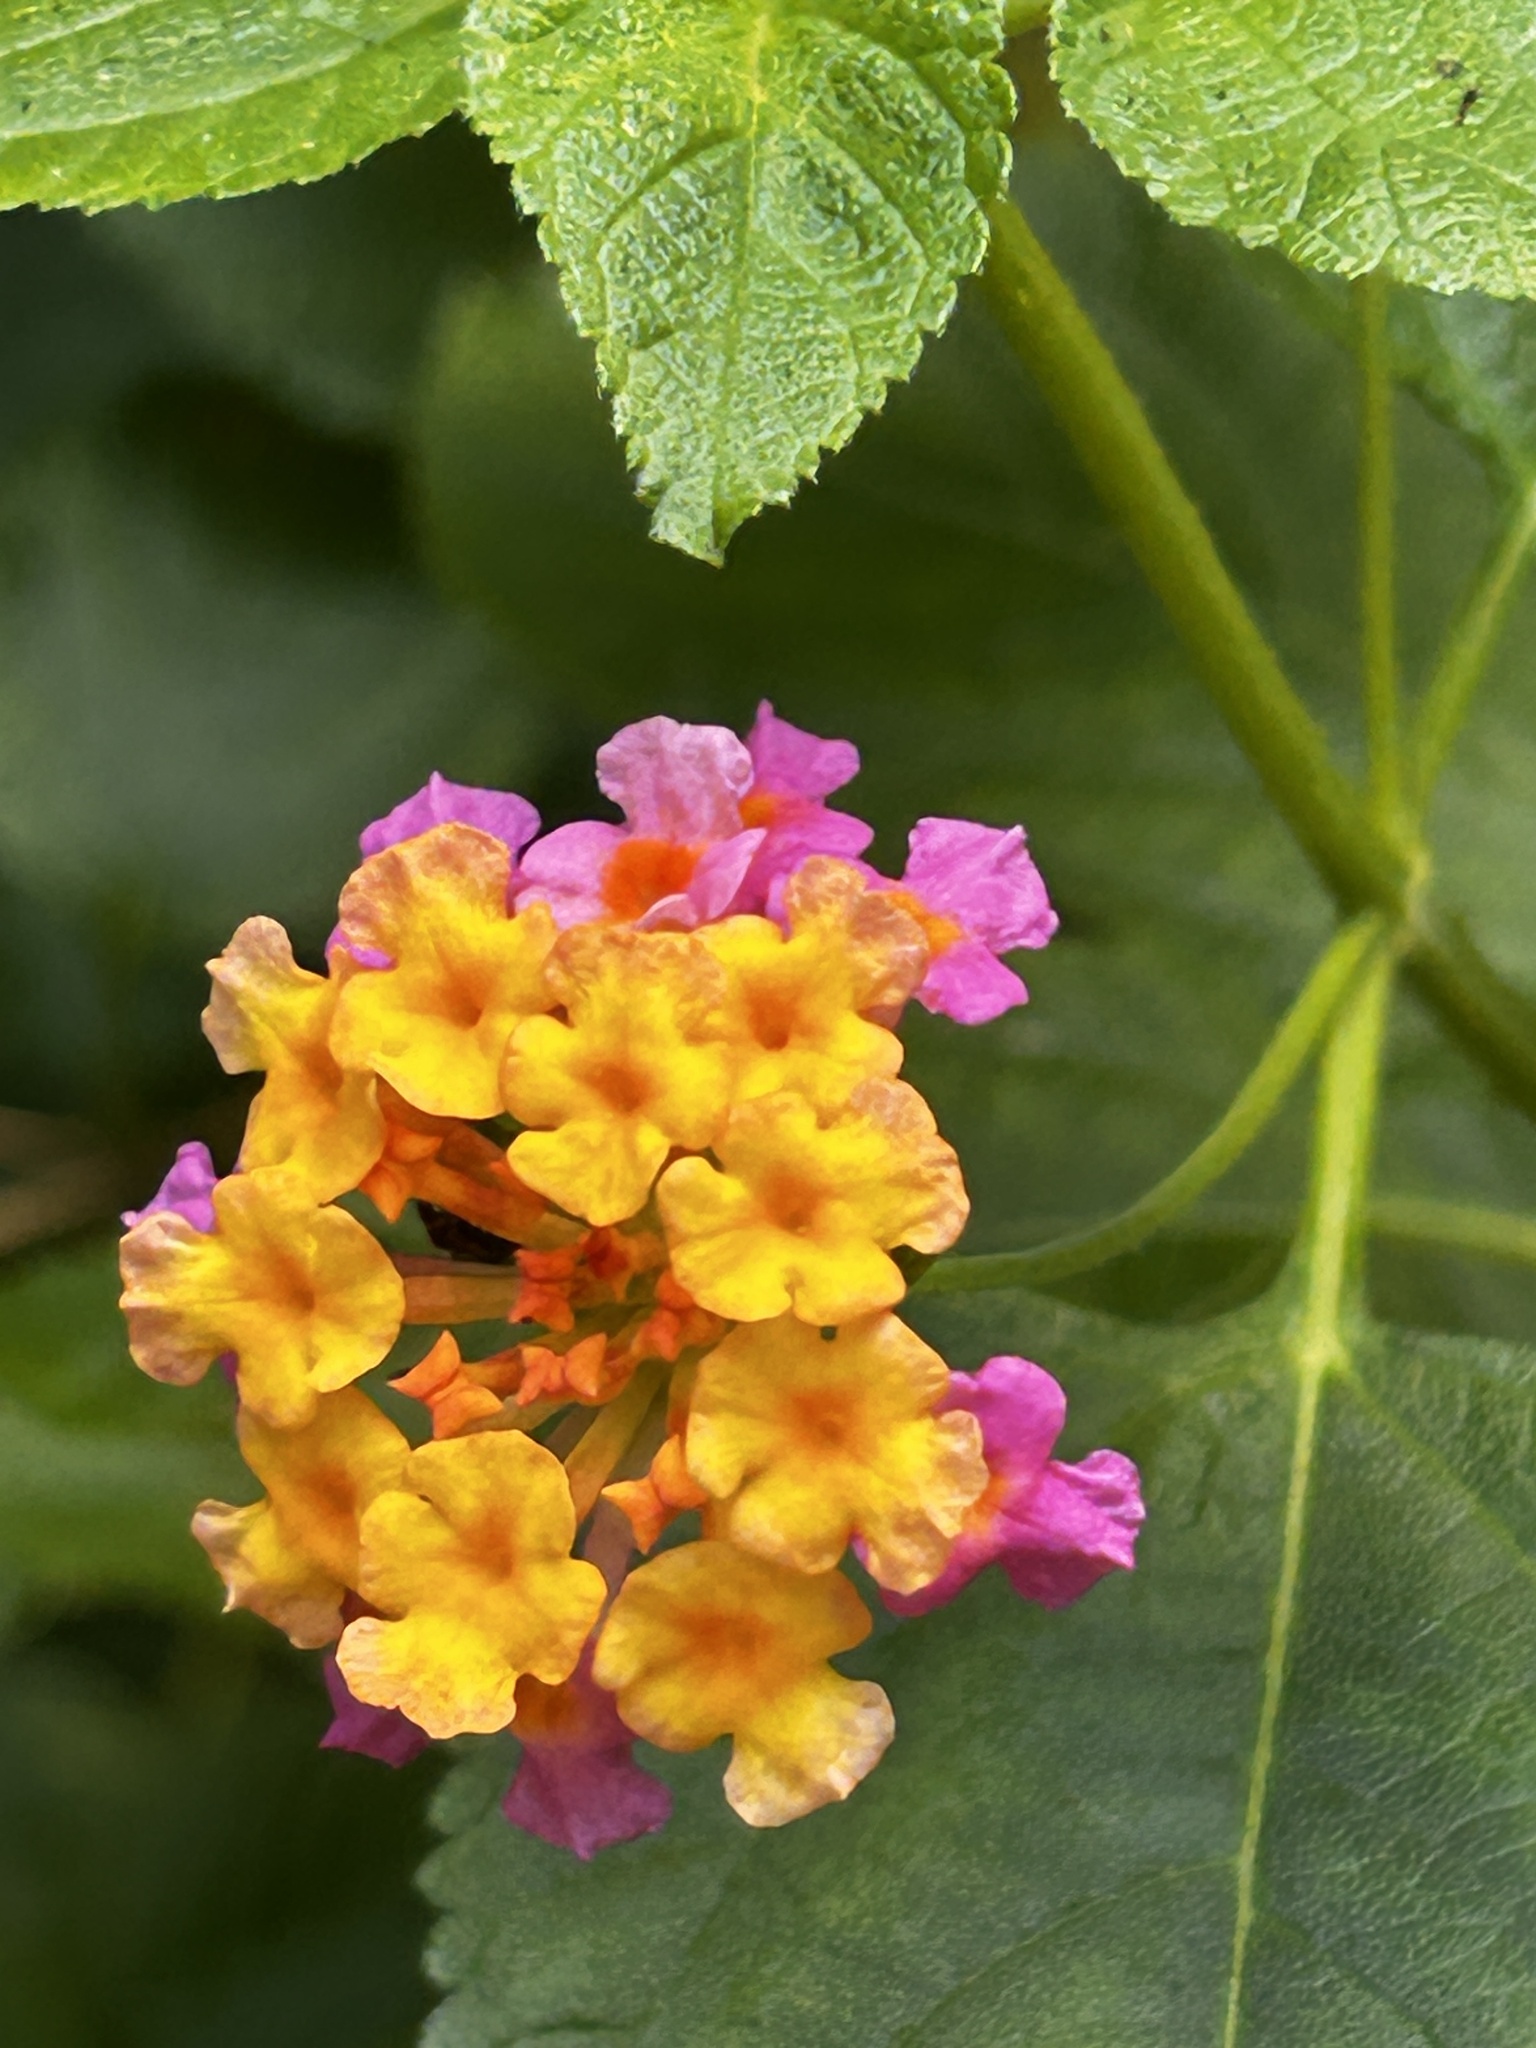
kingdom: Plantae
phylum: Tracheophyta
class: Magnoliopsida
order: Lamiales
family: Verbenaceae
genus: Lantana
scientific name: Lantana camara
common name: Lantana
